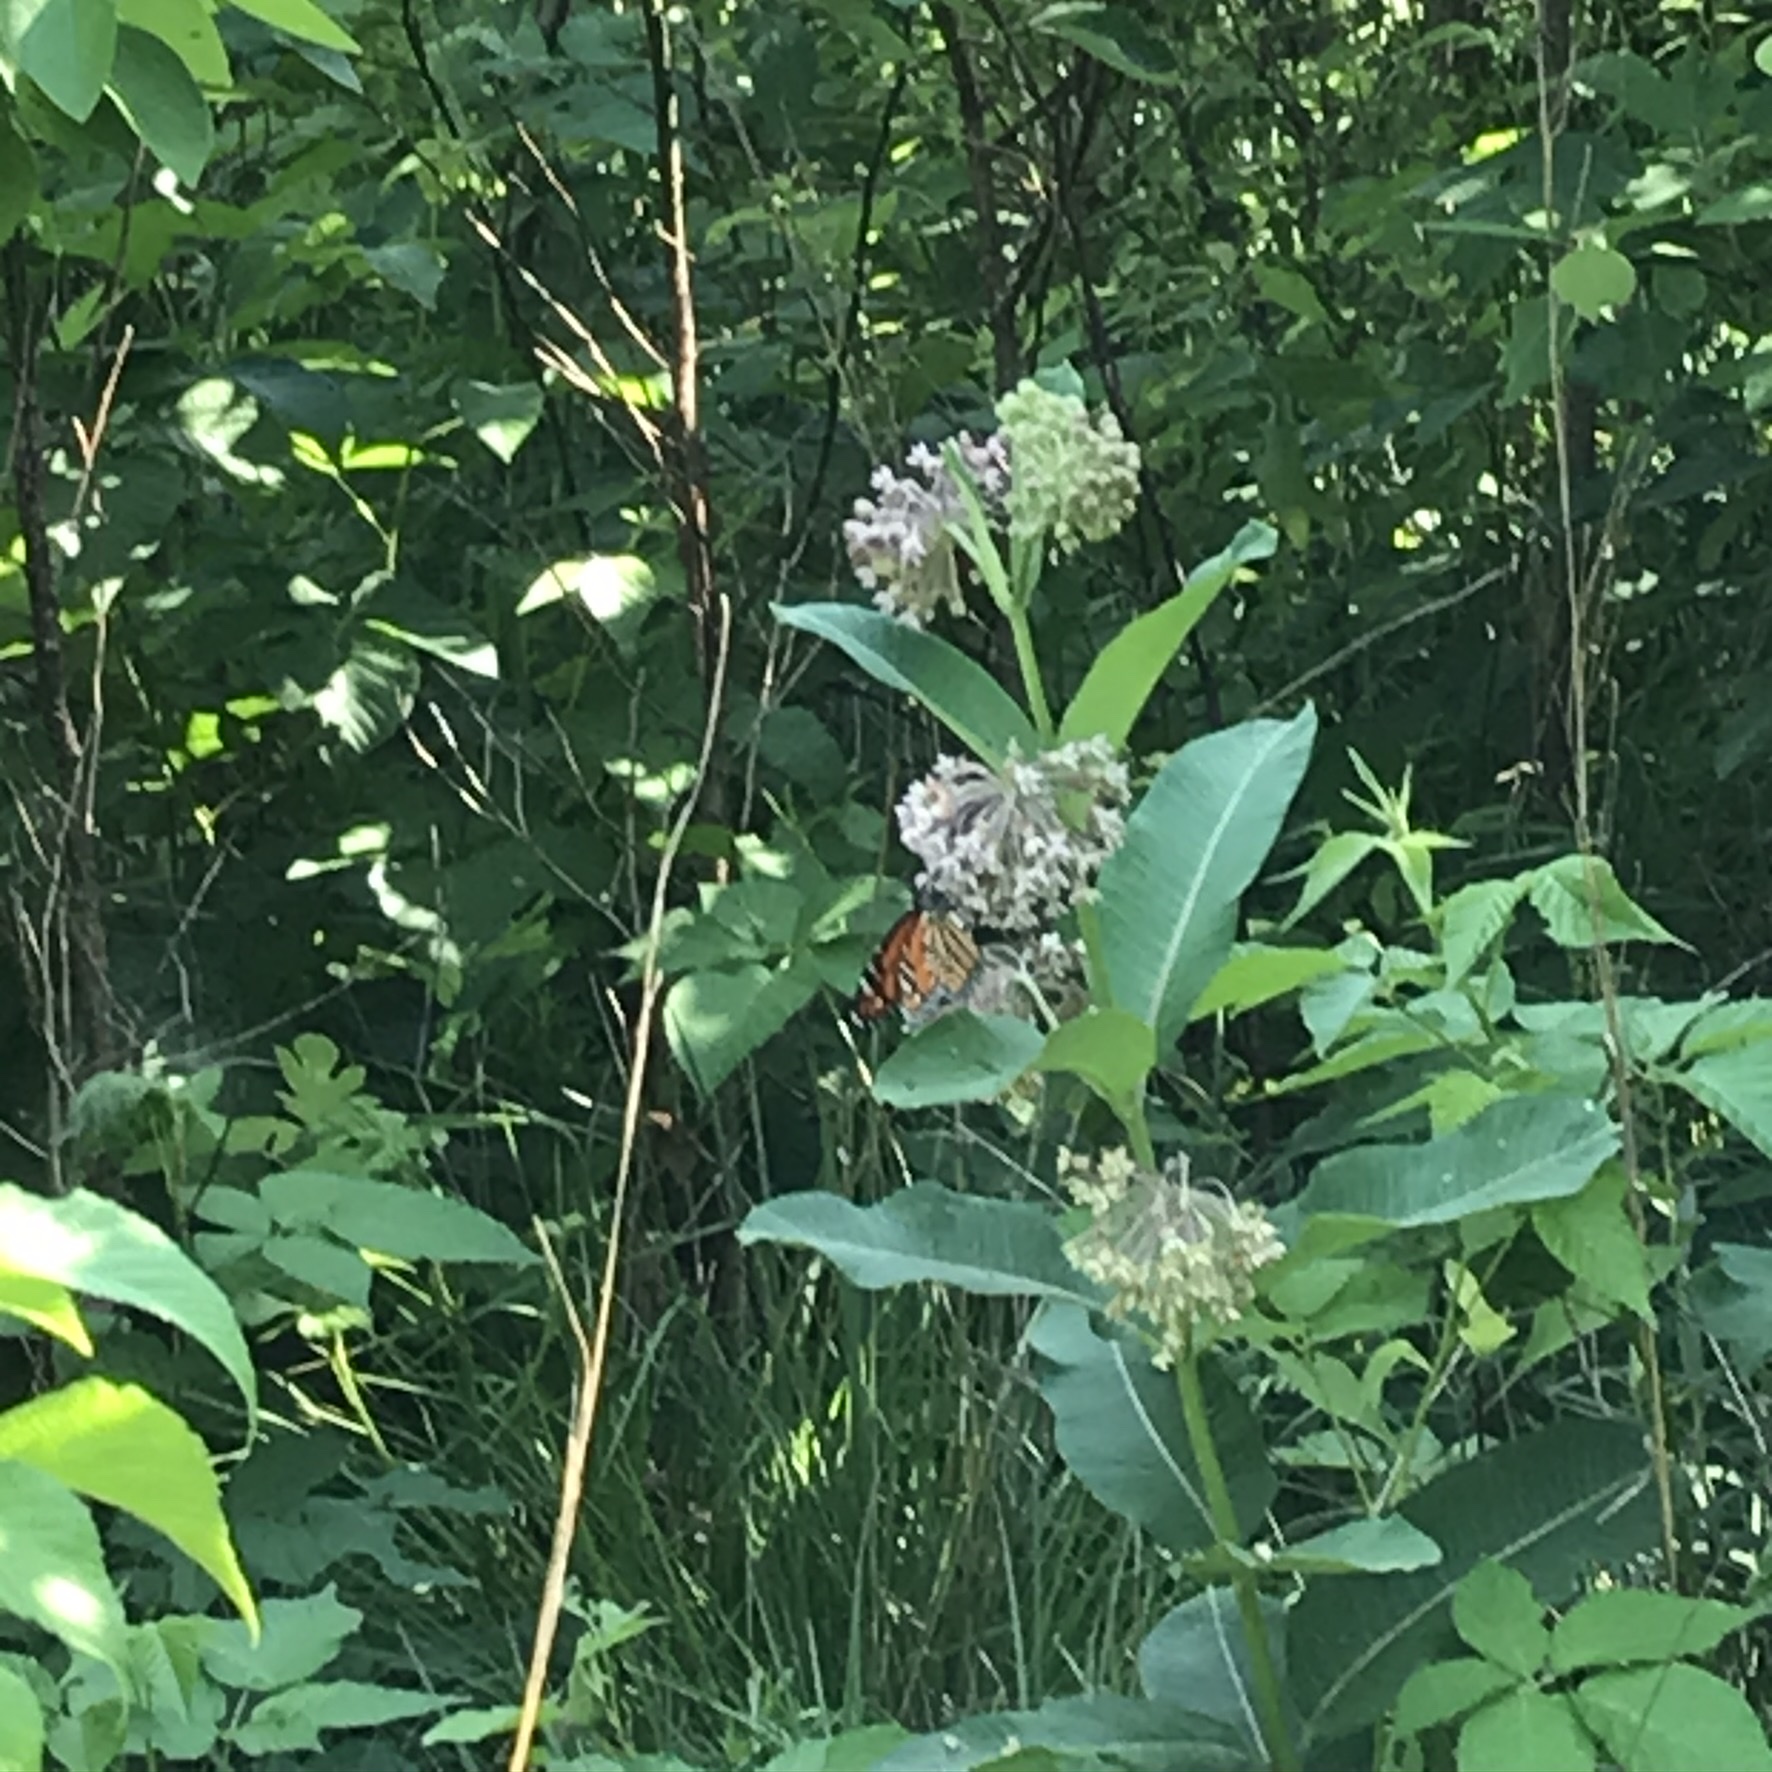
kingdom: Animalia
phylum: Arthropoda
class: Insecta
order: Lepidoptera
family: Nymphalidae
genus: Danaus
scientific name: Danaus plexippus
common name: Monarch
